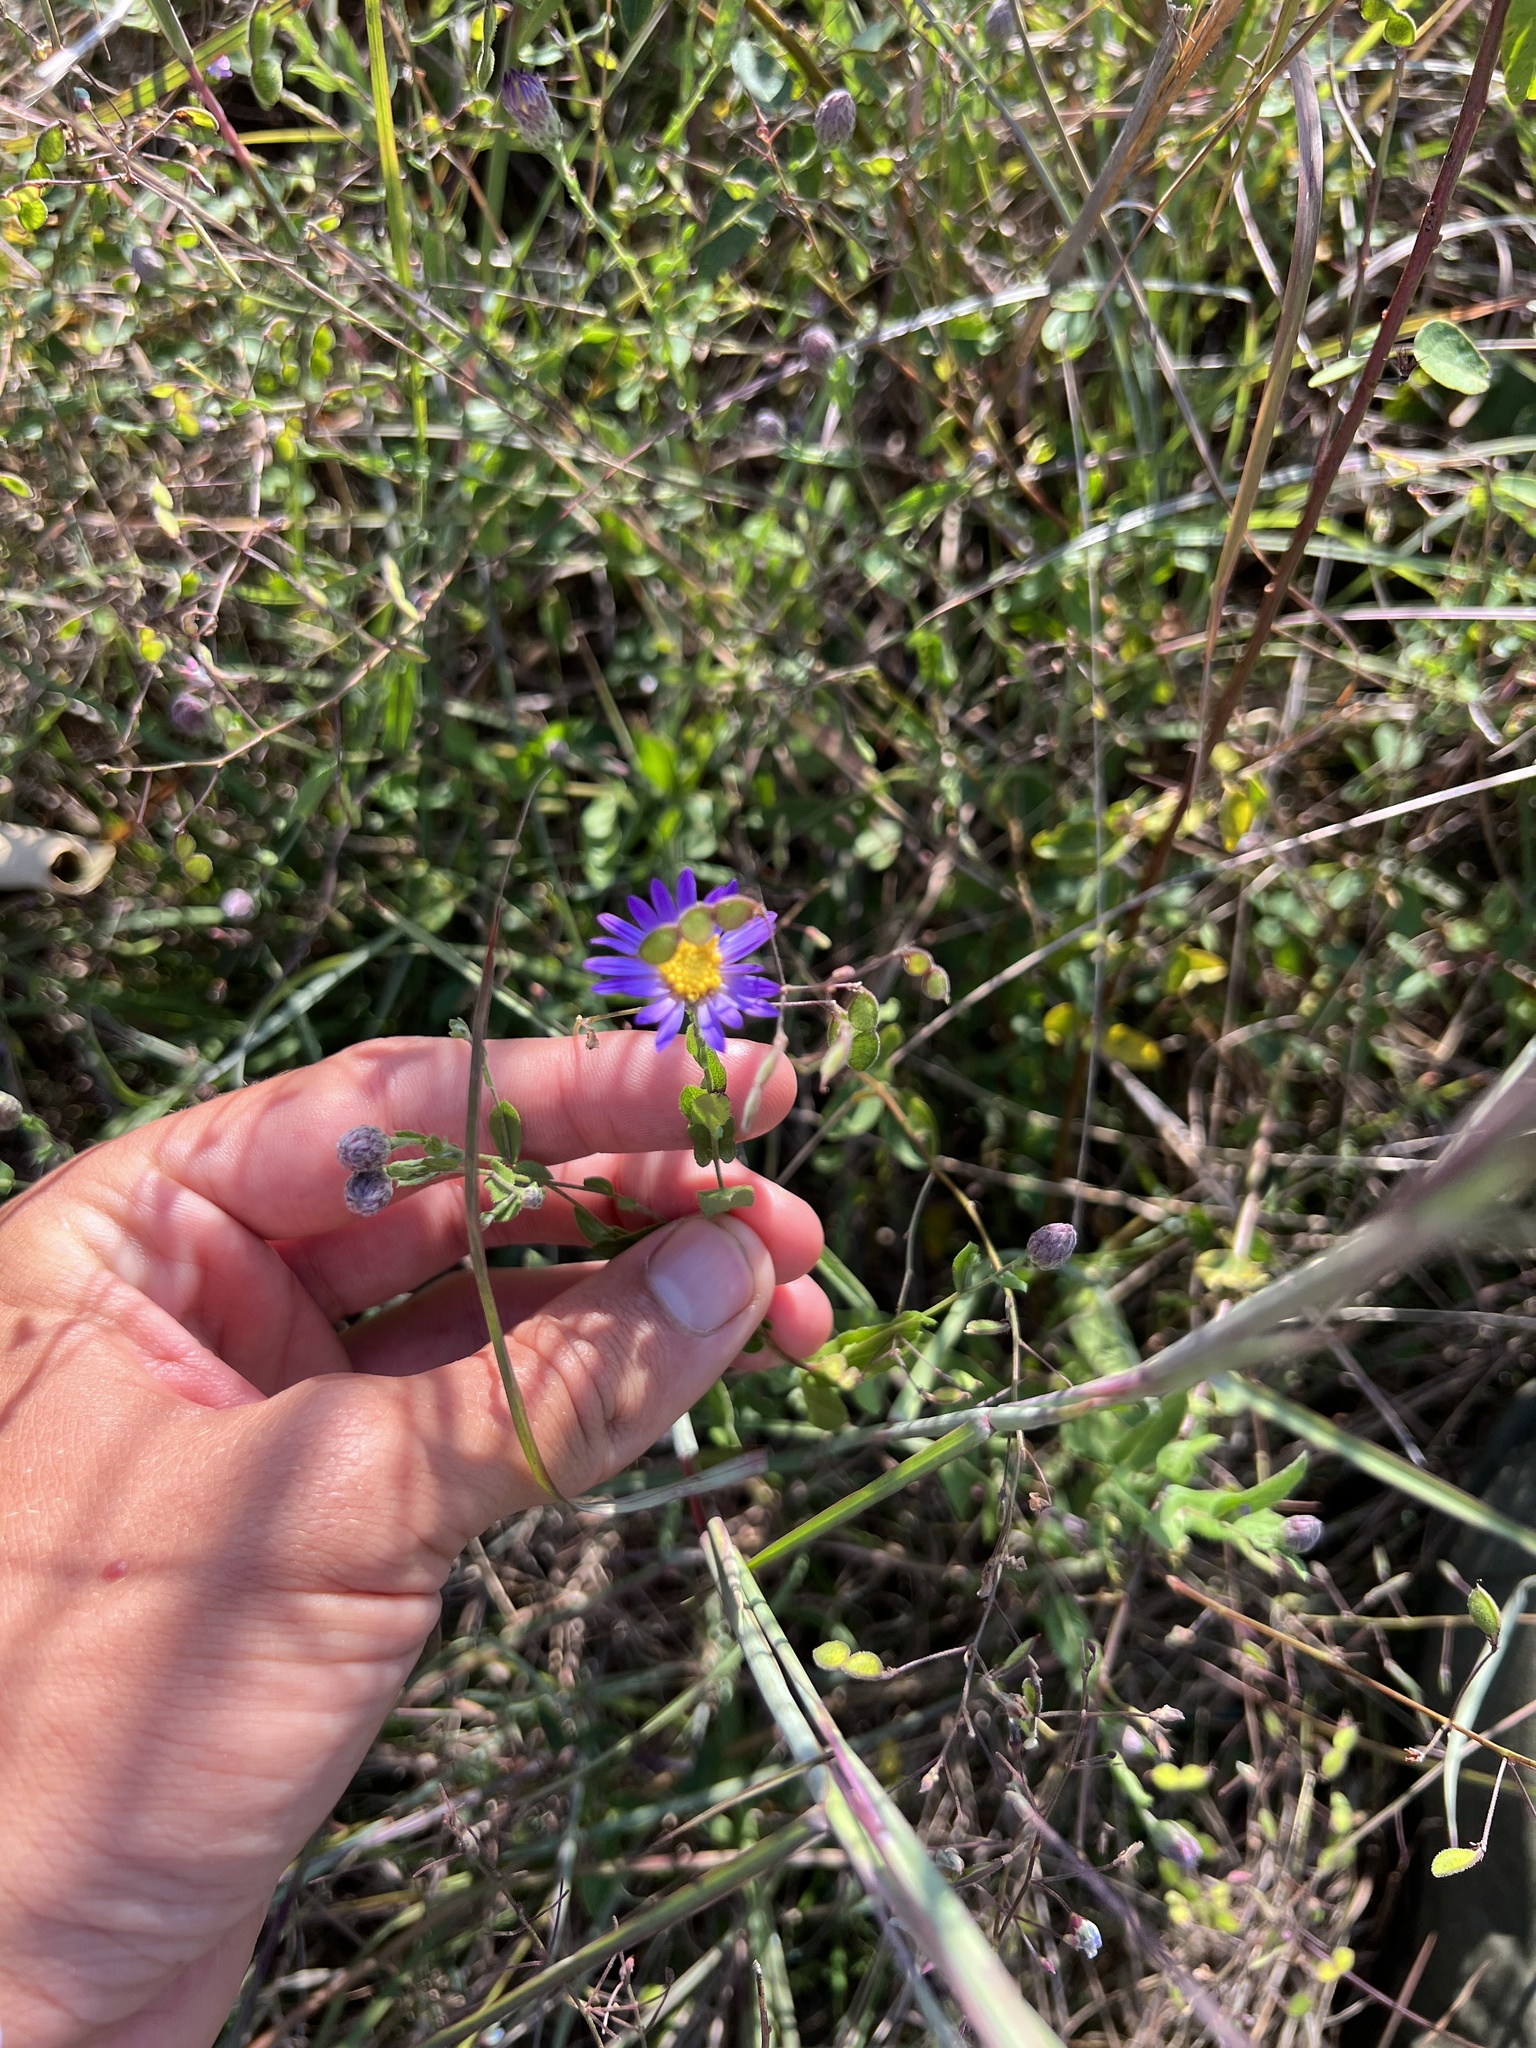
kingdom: Plantae
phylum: Tracheophyta
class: Magnoliopsida
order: Asterales
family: Asteraceae
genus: Symphyotrichum
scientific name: Symphyotrichum patens
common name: Late purple aster
